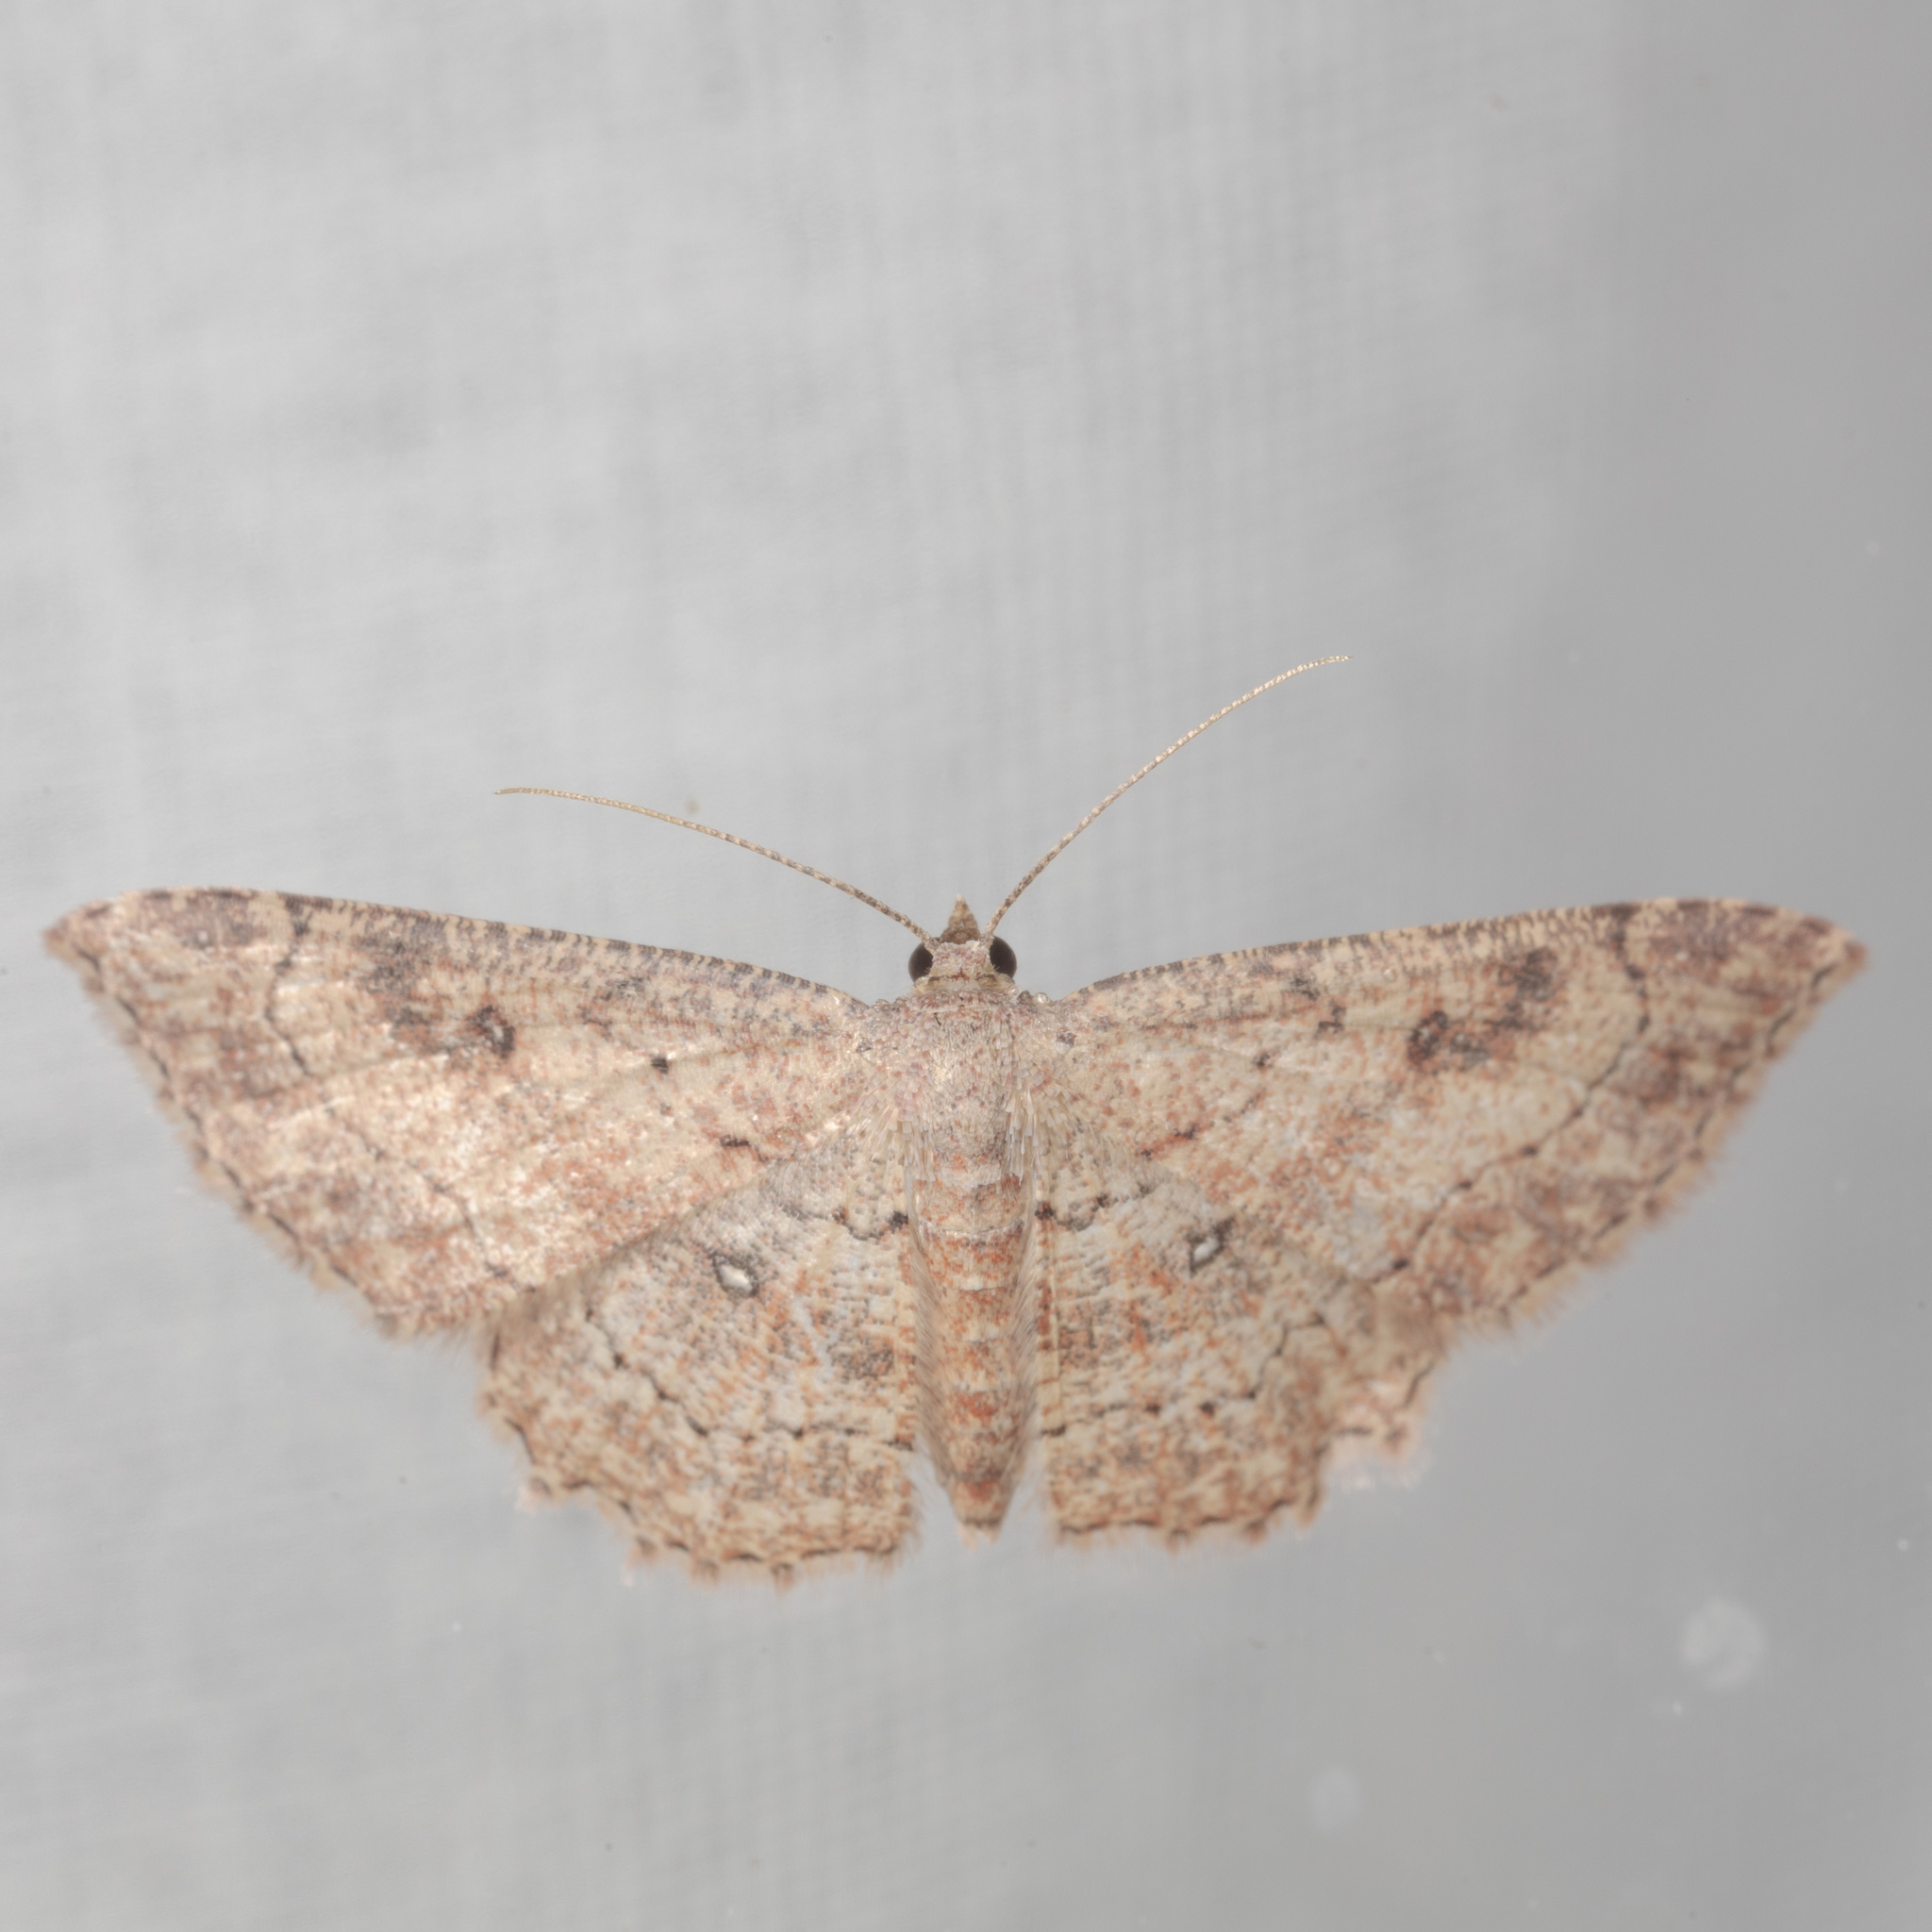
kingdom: Animalia
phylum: Arthropoda
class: Insecta
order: Lepidoptera
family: Geometridae
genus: Cyclophora
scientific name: Cyclophora nanaria
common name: Cankerworm
